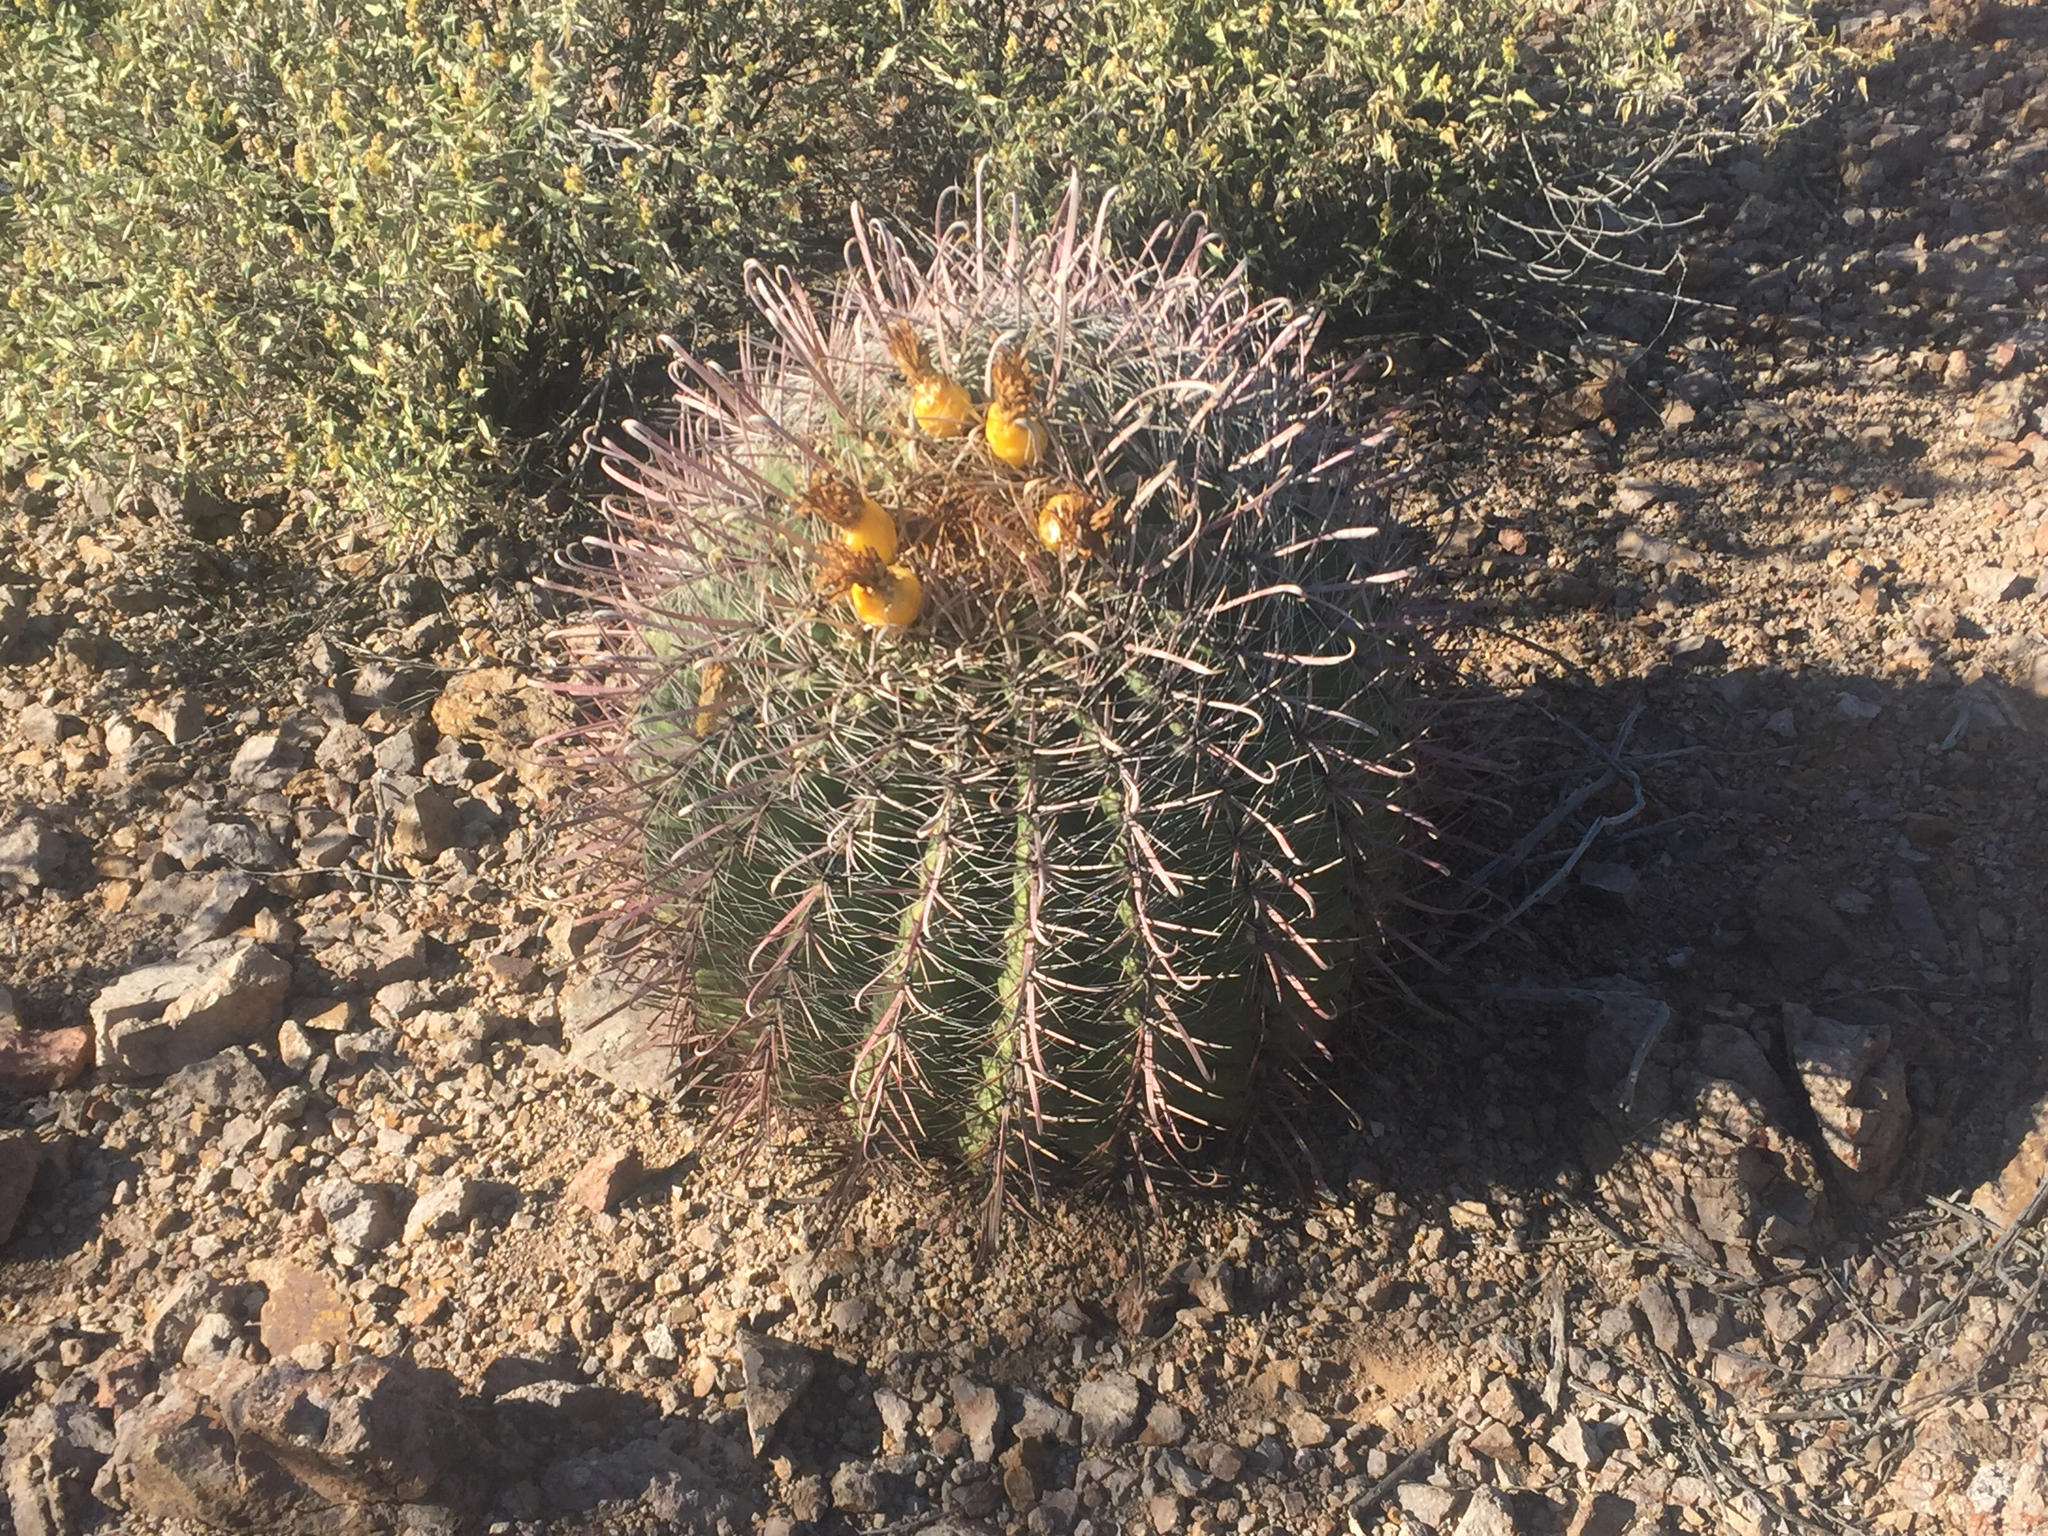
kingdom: Plantae
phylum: Tracheophyta
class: Magnoliopsida
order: Caryophyllales
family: Cactaceae
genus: Ferocactus
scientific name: Ferocactus wislizeni
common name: Candy barrel cactus
